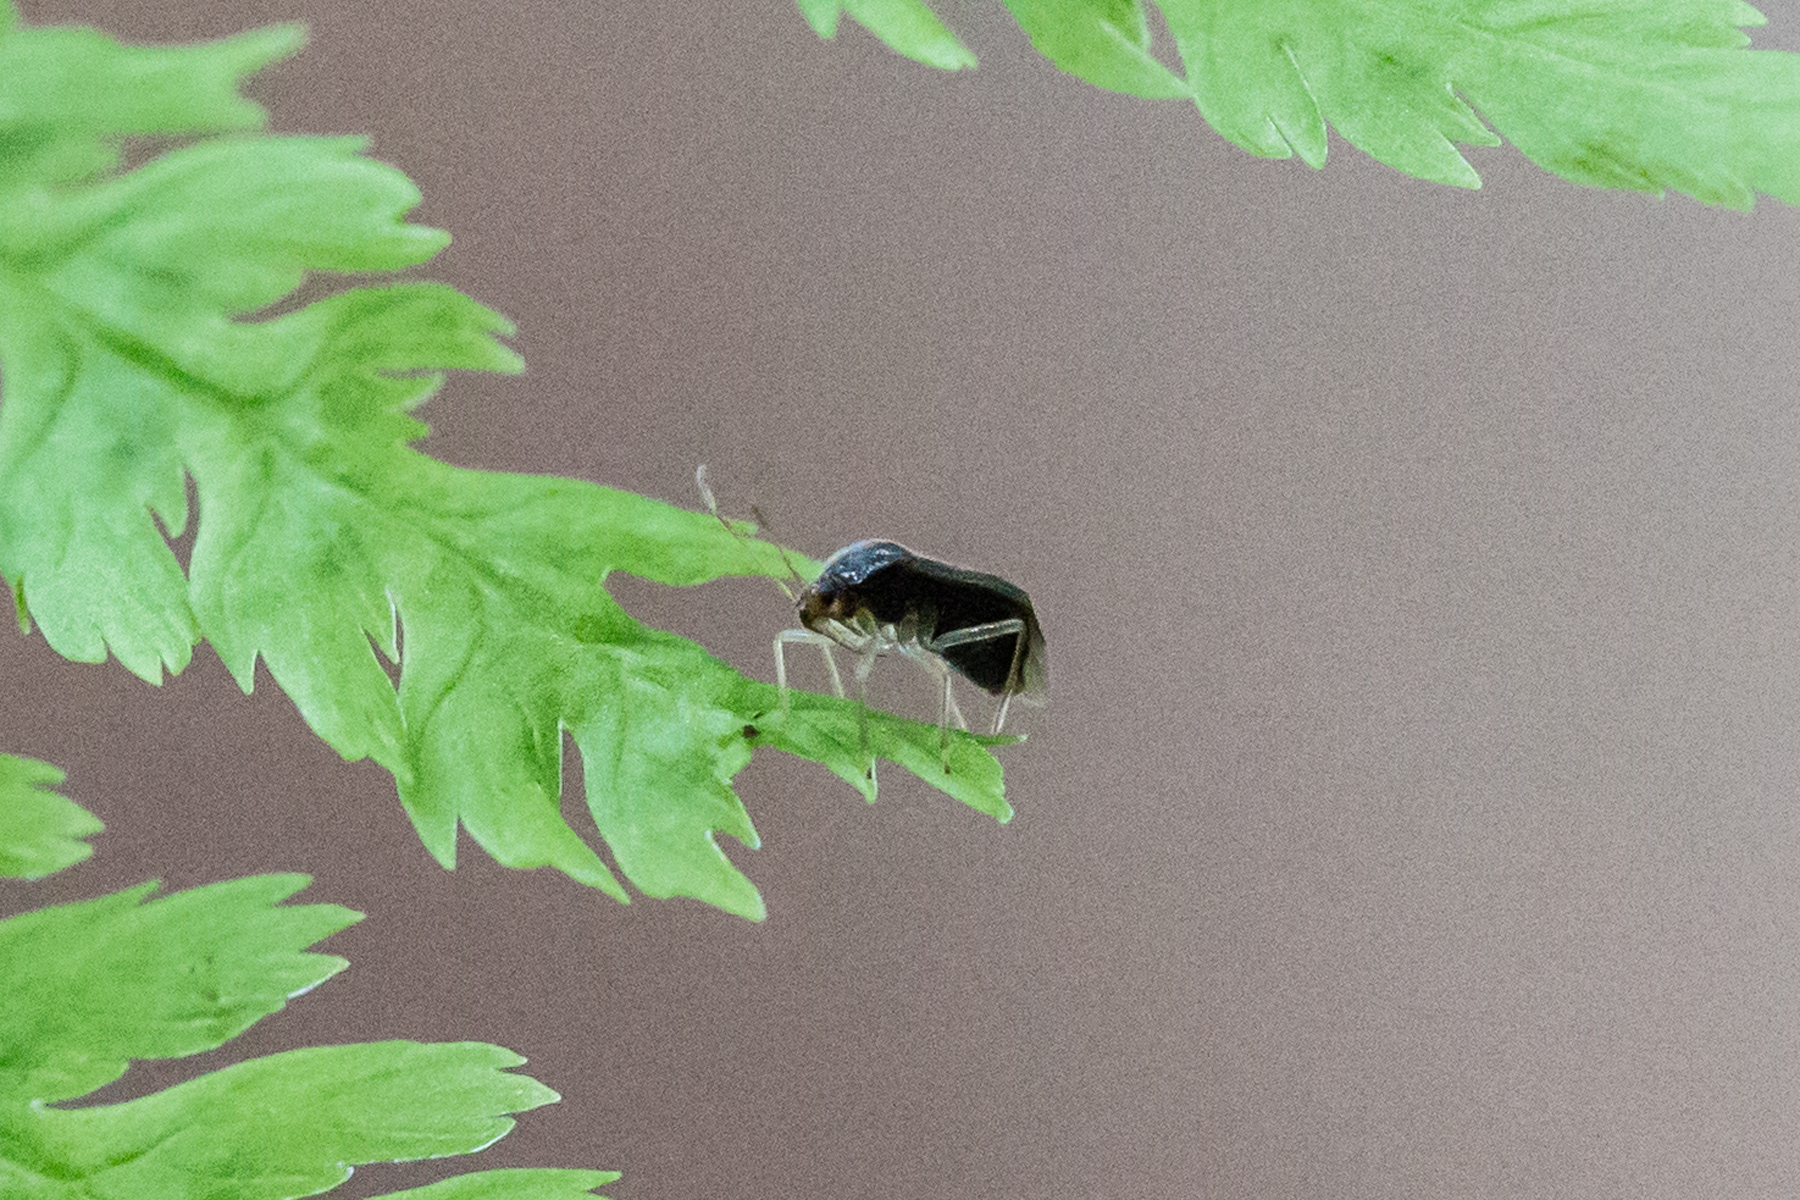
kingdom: Animalia
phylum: Arthropoda
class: Insecta
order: Hemiptera
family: Miridae
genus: Monalocoris
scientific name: Monalocoris americanus
